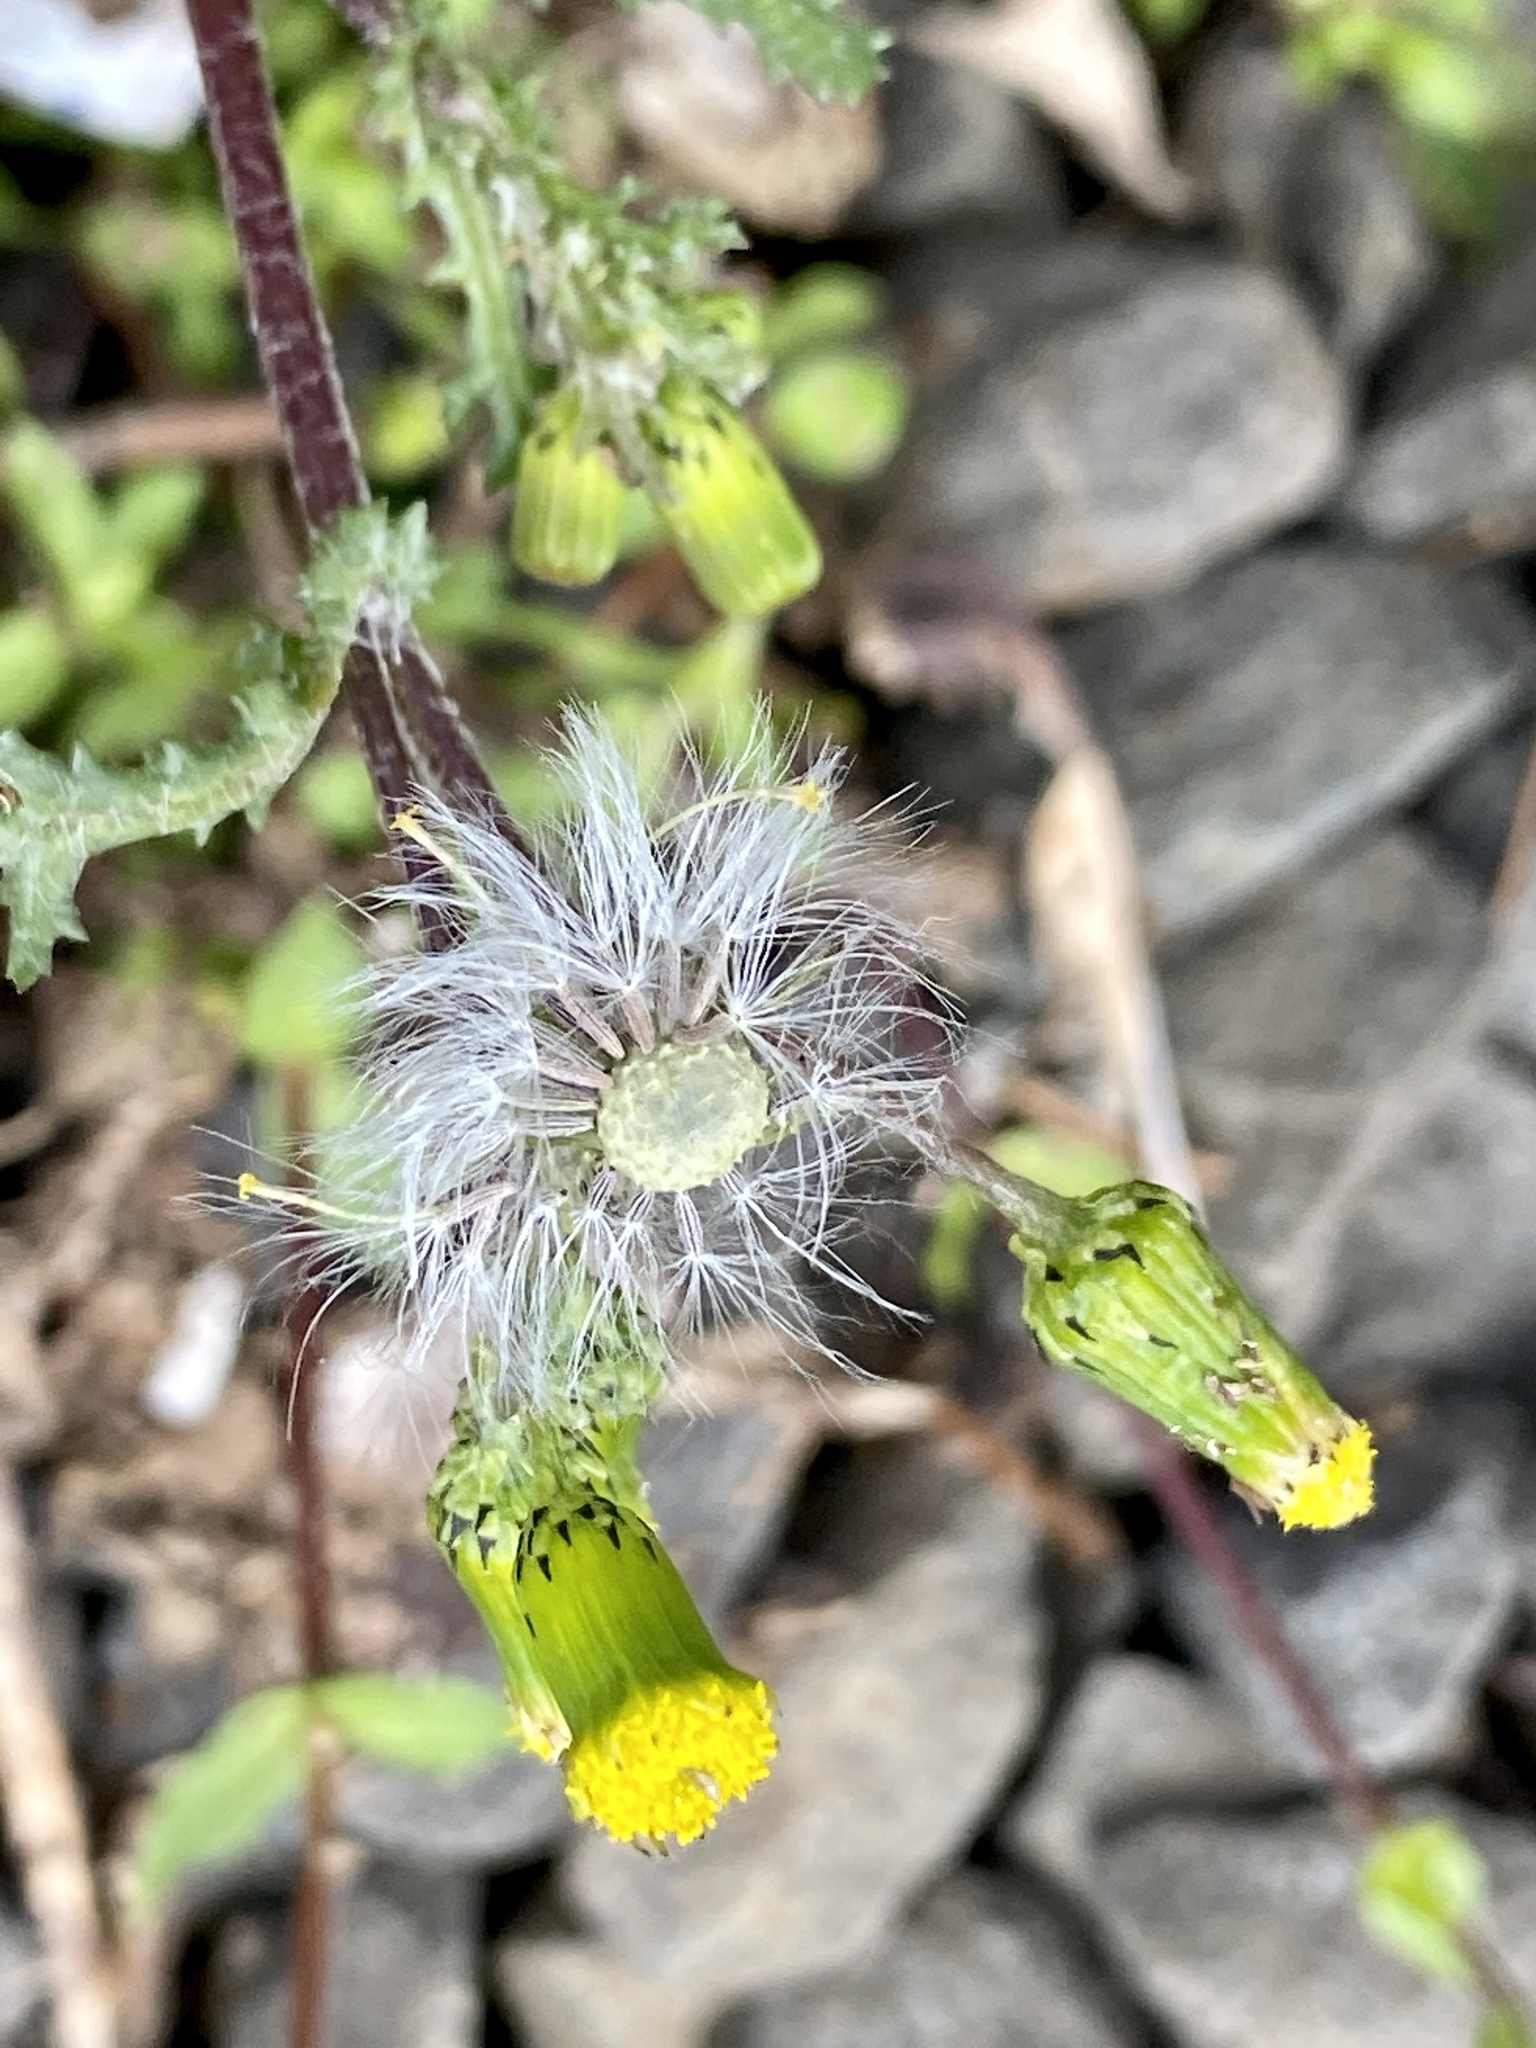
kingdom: Plantae
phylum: Tracheophyta
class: Magnoliopsida
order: Asterales
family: Asteraceae
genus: Senecio
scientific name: Senecio vulgaris
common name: Old-man-in-the-spring
